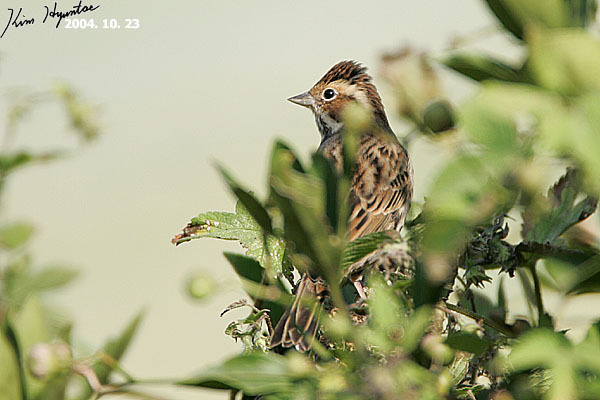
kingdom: Animalia
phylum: Chordata
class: Aves
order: Passeriformes
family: Emberizidae
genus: Emberiza
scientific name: Emberiza fucata
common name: Chestnut-eared bunting
